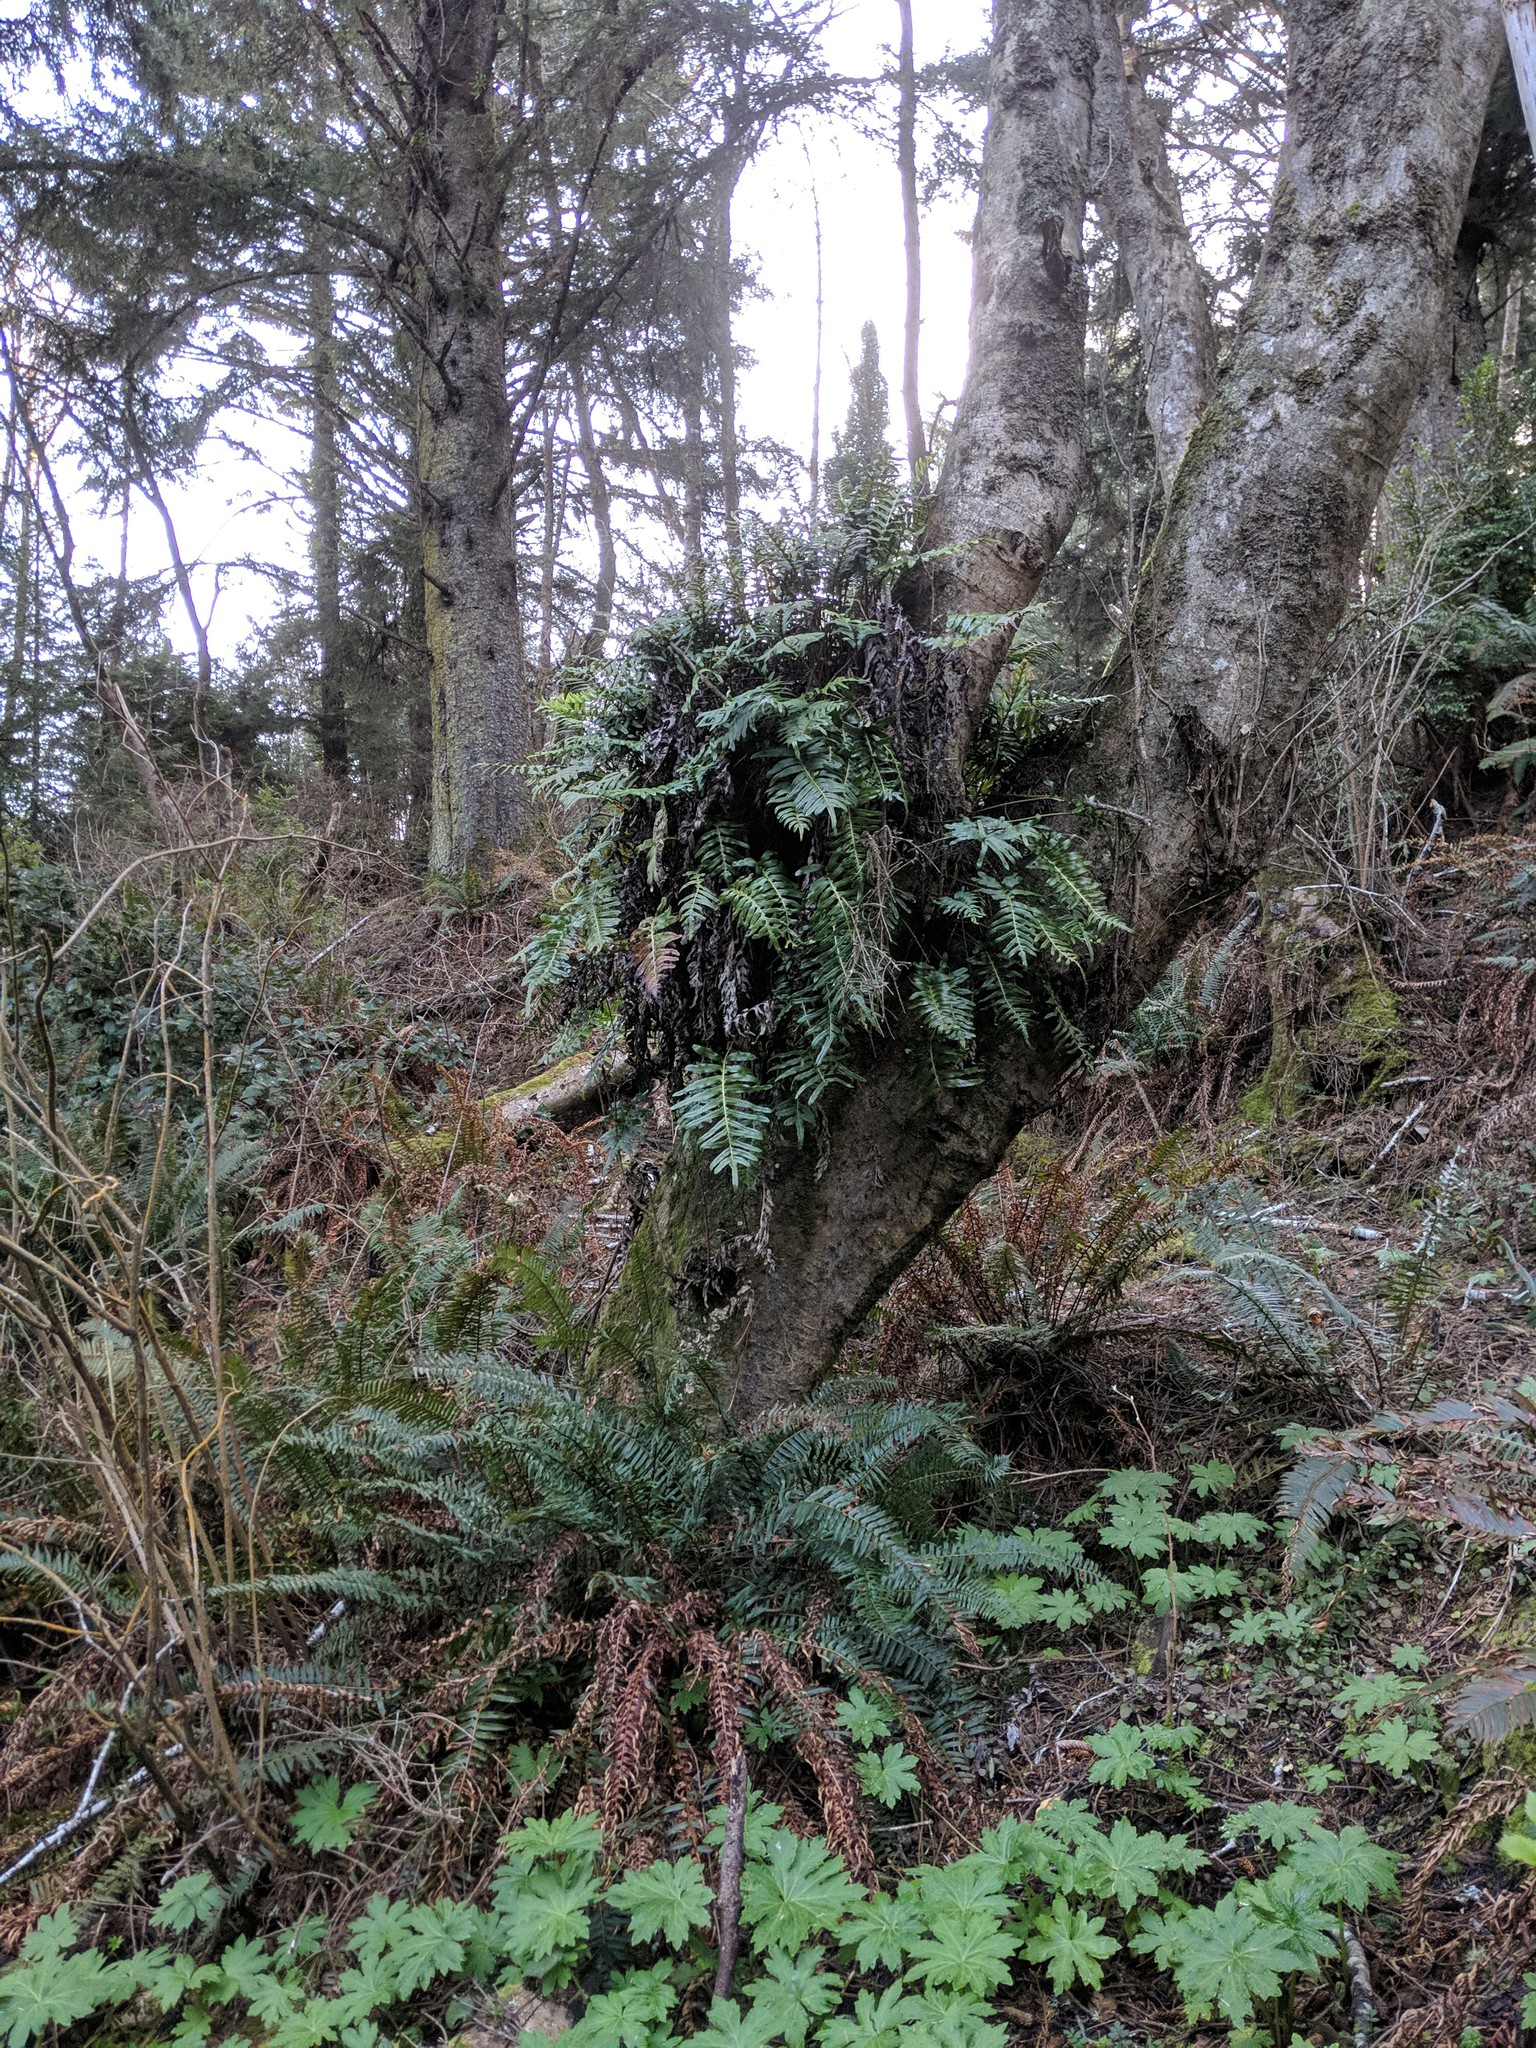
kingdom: Plantae
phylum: Tracheophyta
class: Polypodiopsida
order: Polypodiales
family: Polypodiaceae
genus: Polypodium
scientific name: Polypodium scouleri
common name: Scouler's polypody
